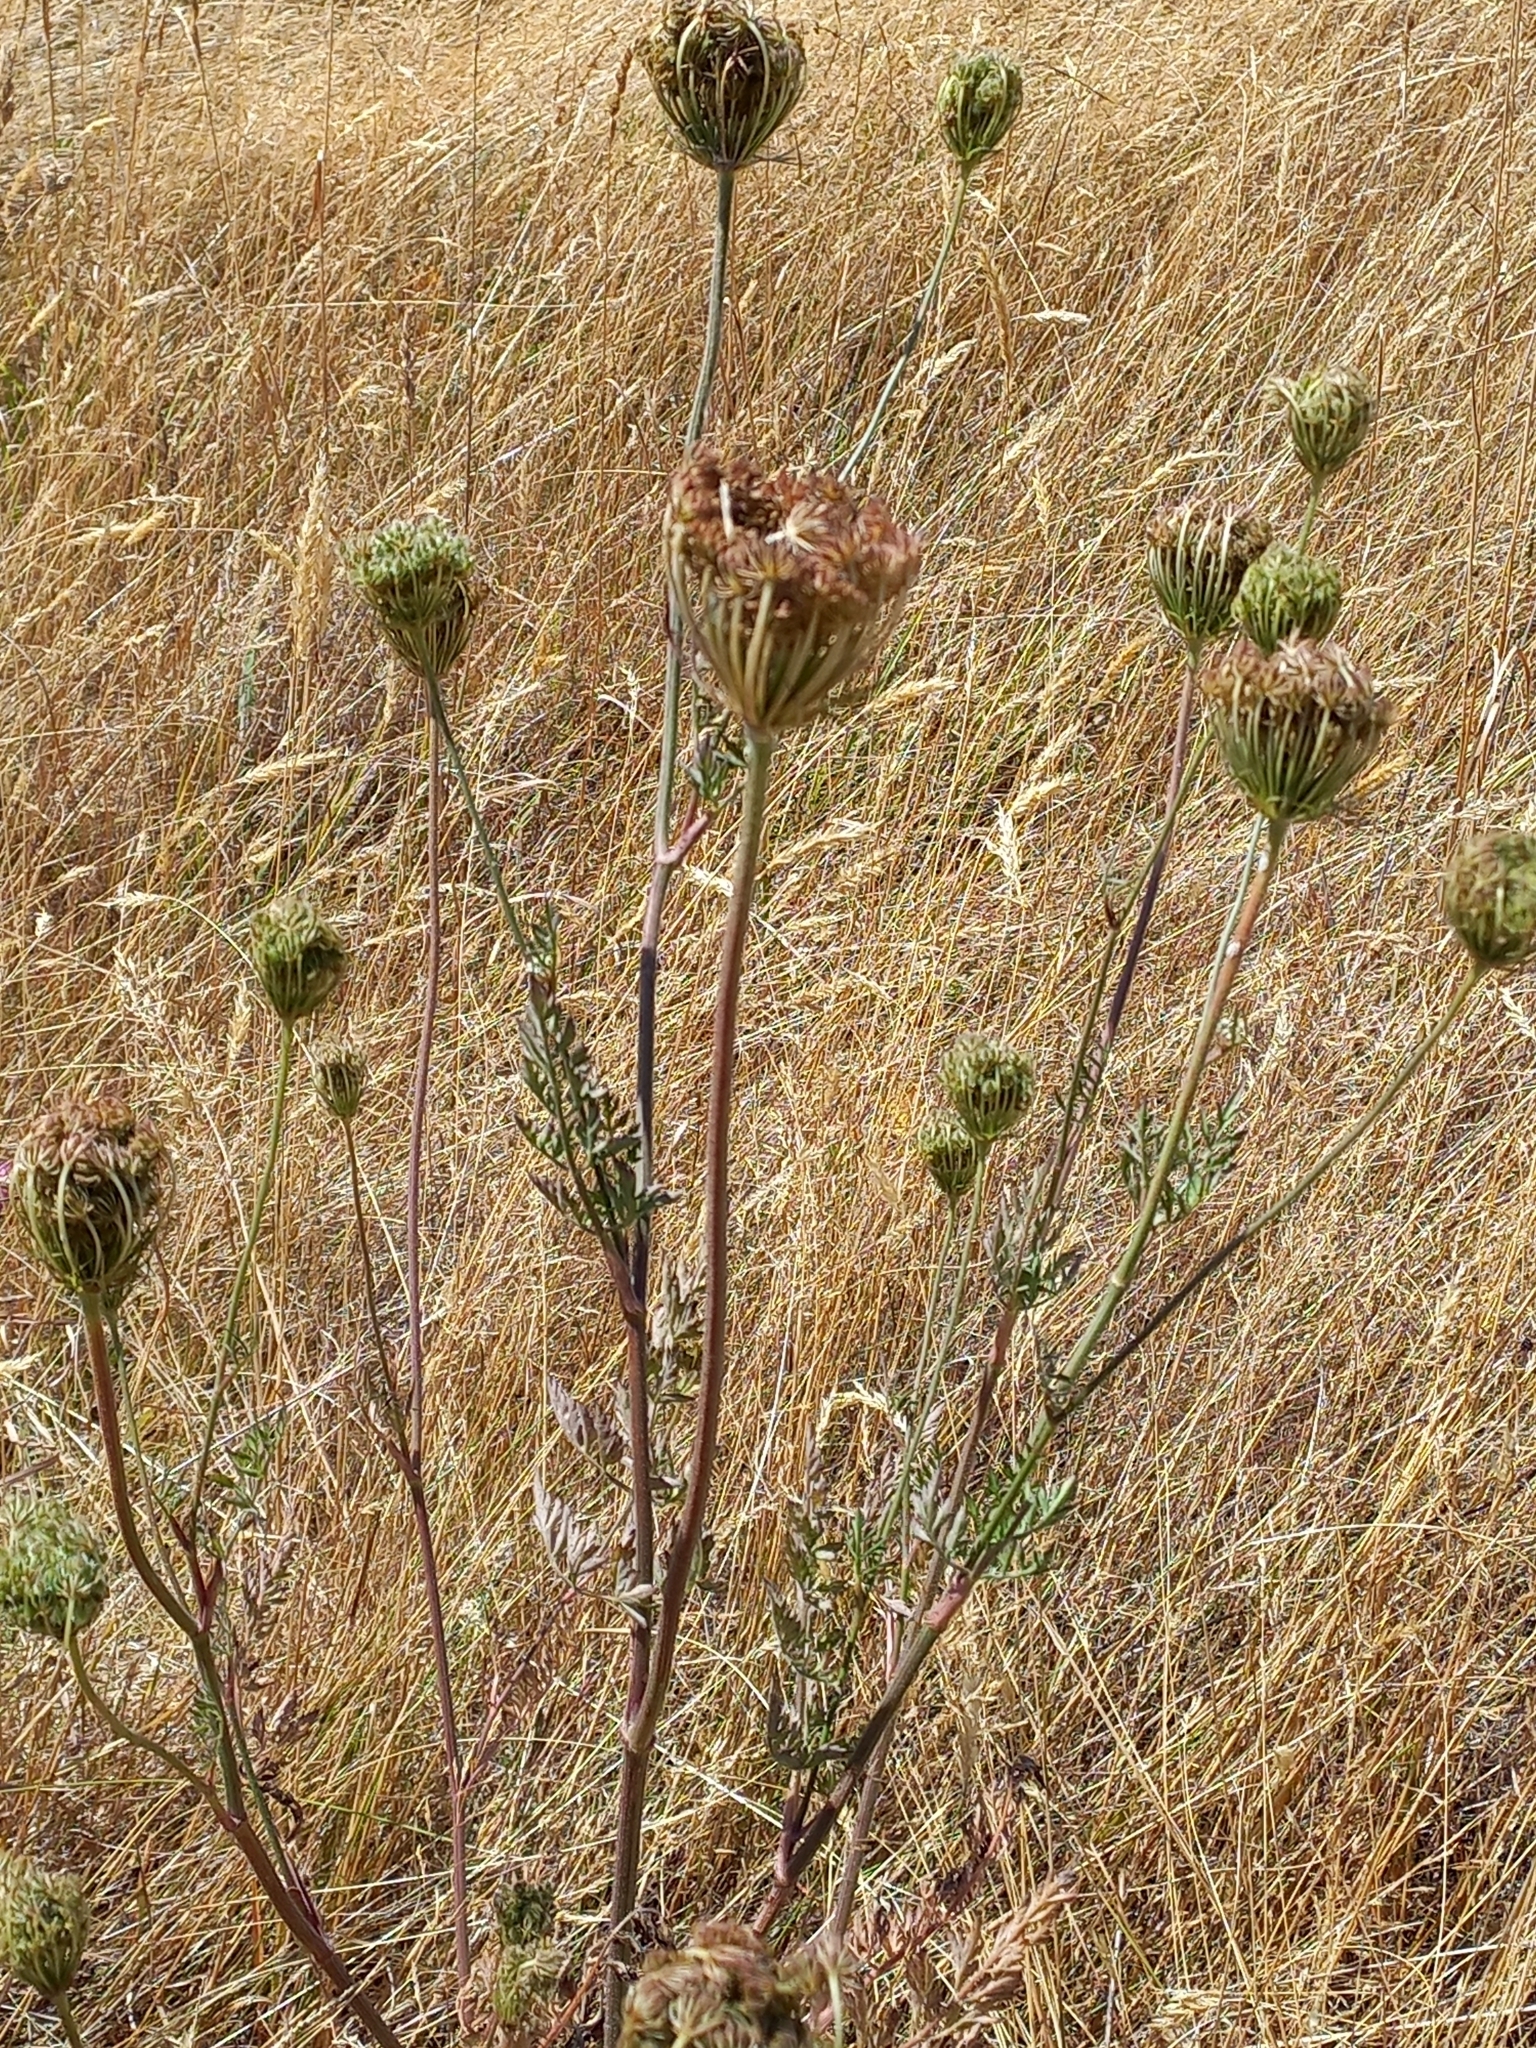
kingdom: Plantae
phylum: Tracheophyta
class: Magnoliopsida
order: Apiales
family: Apiaceae
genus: Daucus
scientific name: Daucus carota
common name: Wild carrot
